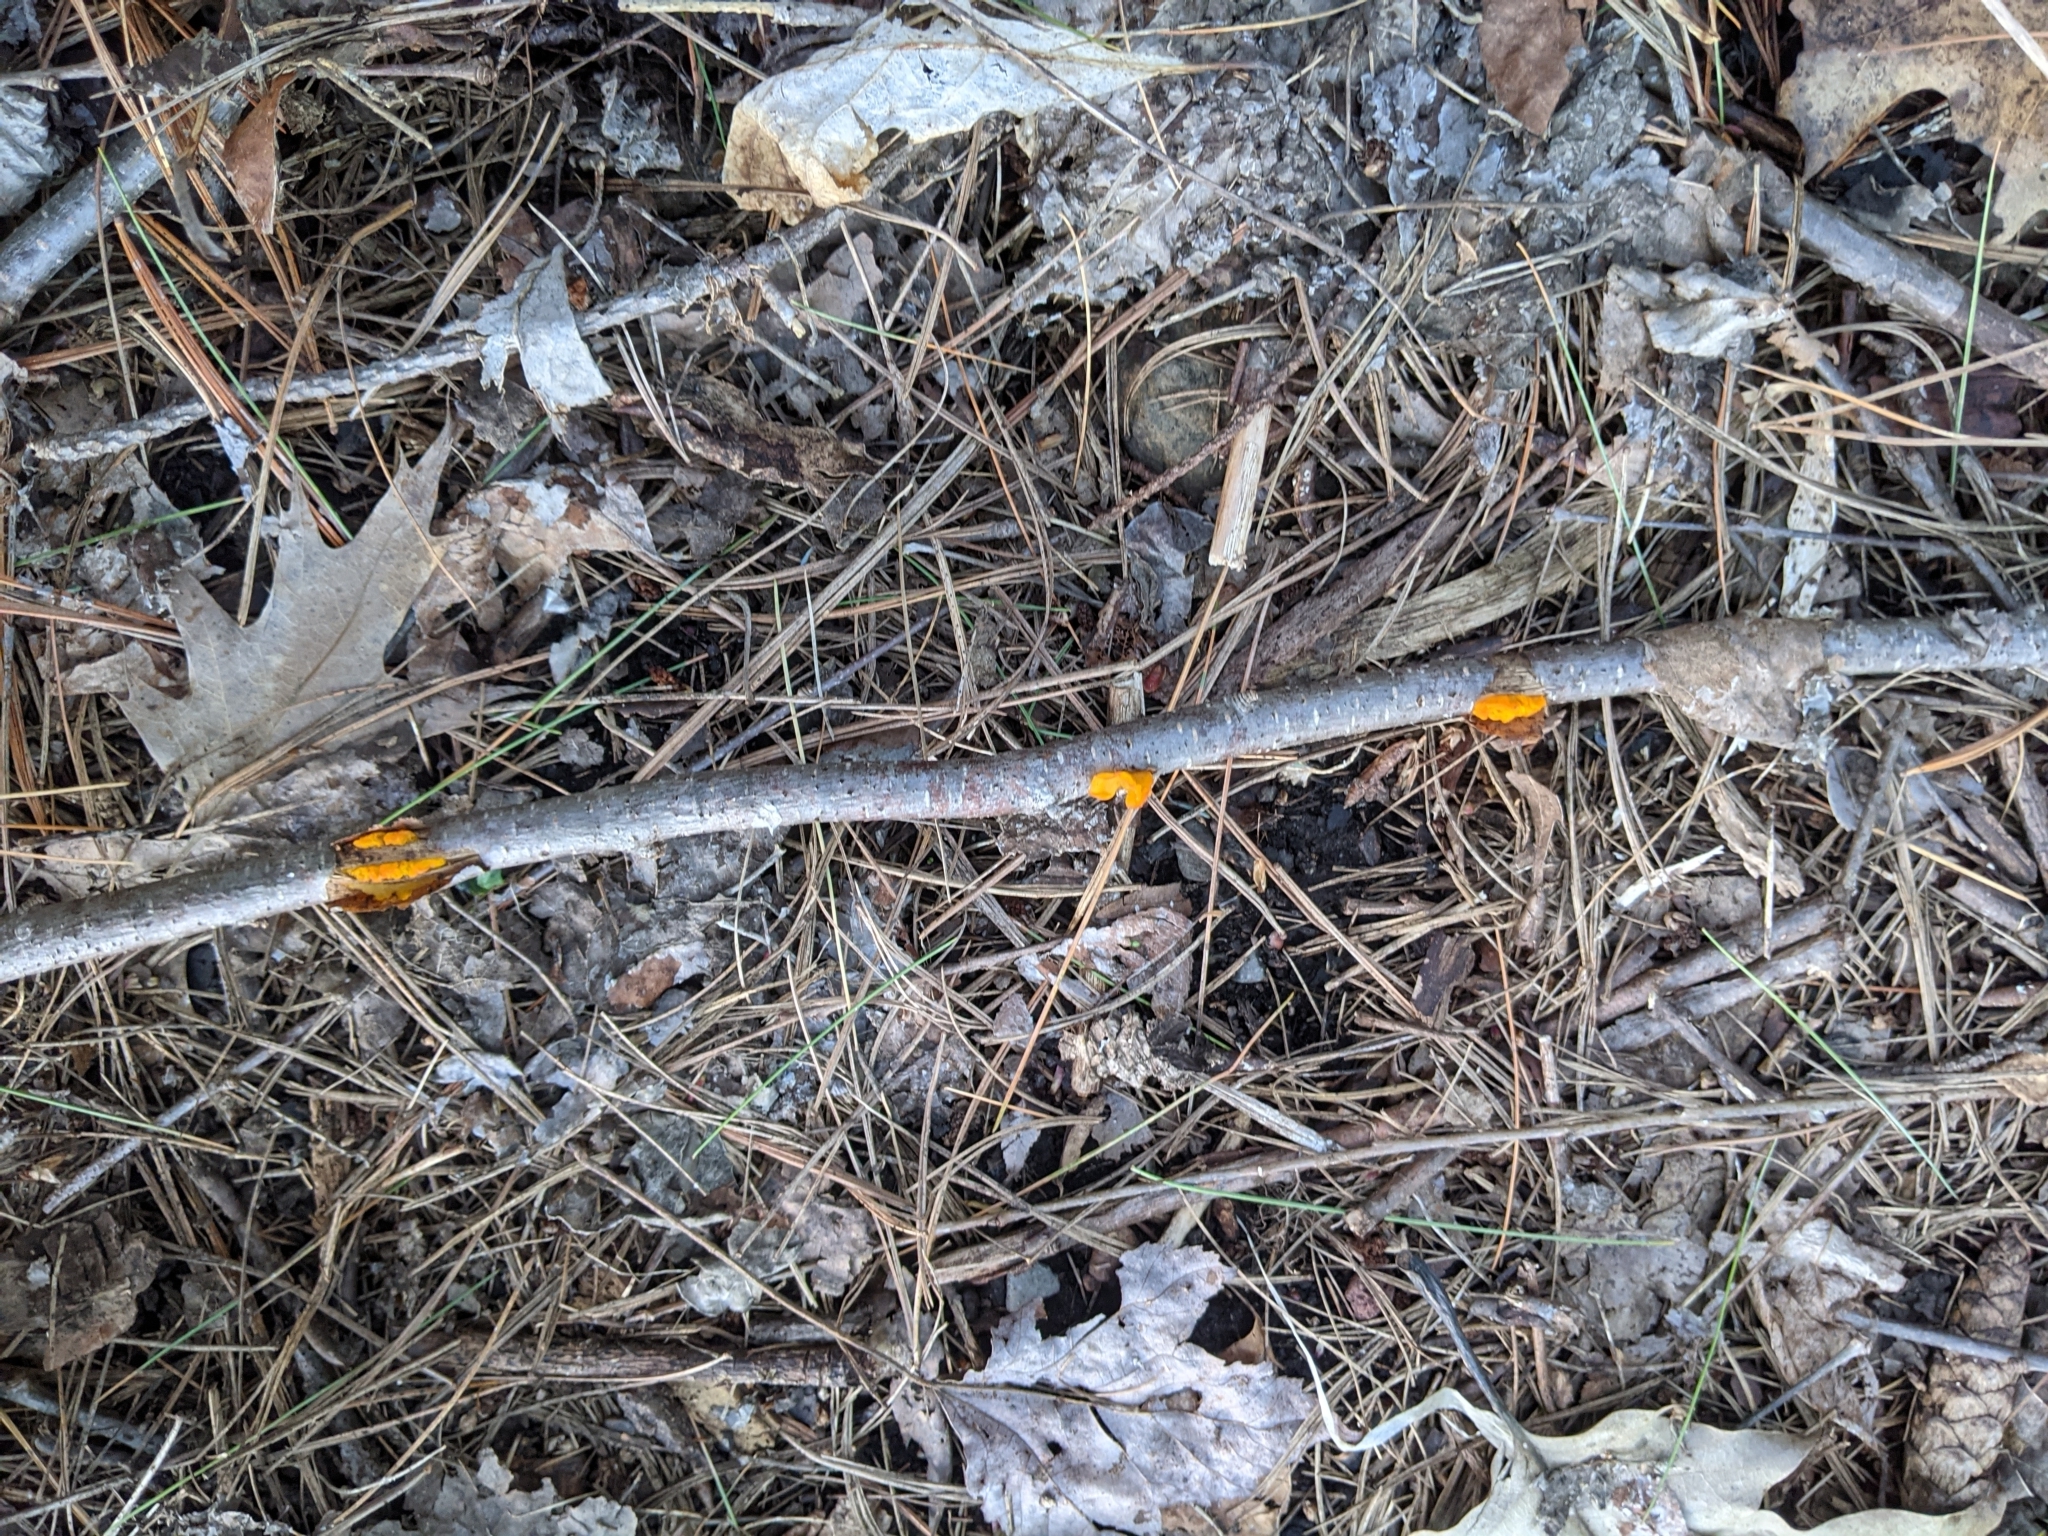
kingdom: Fungi
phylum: Basidiomycota
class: Tremellomycetes
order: Tremellales
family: Tremellaceae
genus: Tremella
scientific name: Tremella mesenterica
